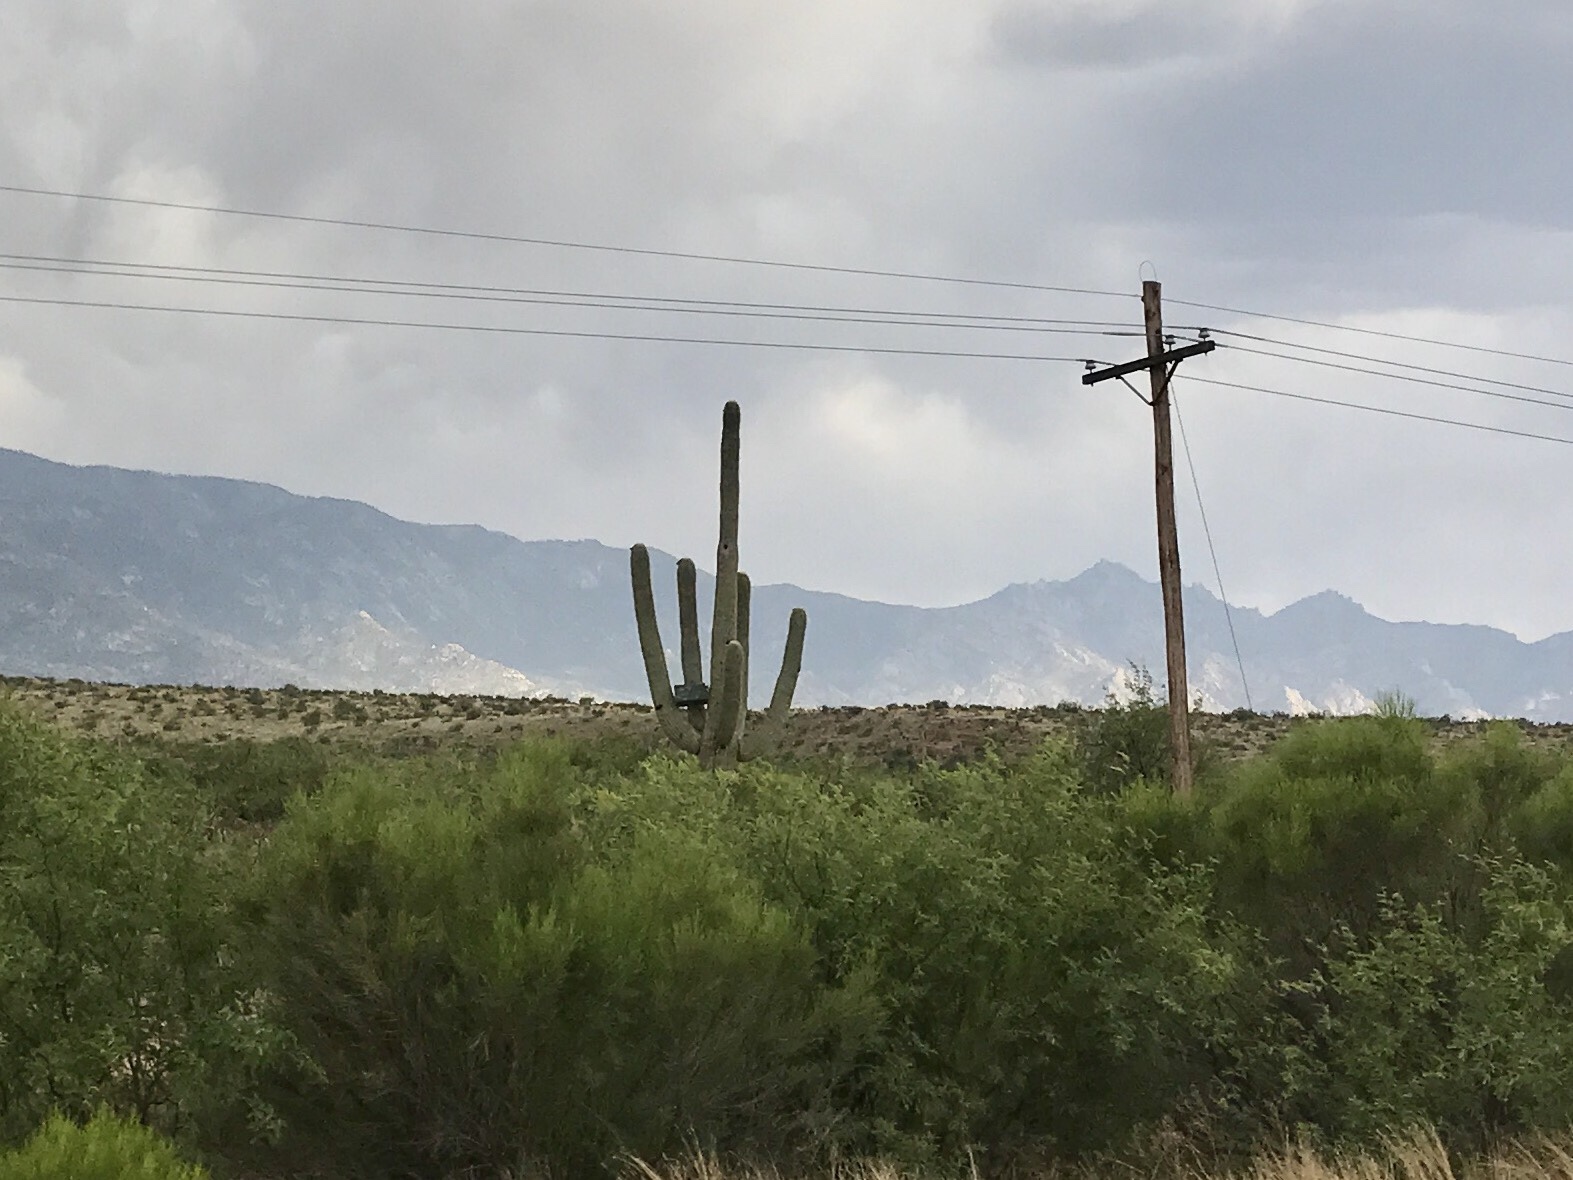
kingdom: Plantae
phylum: Tracheophyta
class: Magnoliopsida
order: Caryophyllales
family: Cactaceae
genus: Carnegiea
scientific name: Carnegiea gigantea
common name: Saguaro
